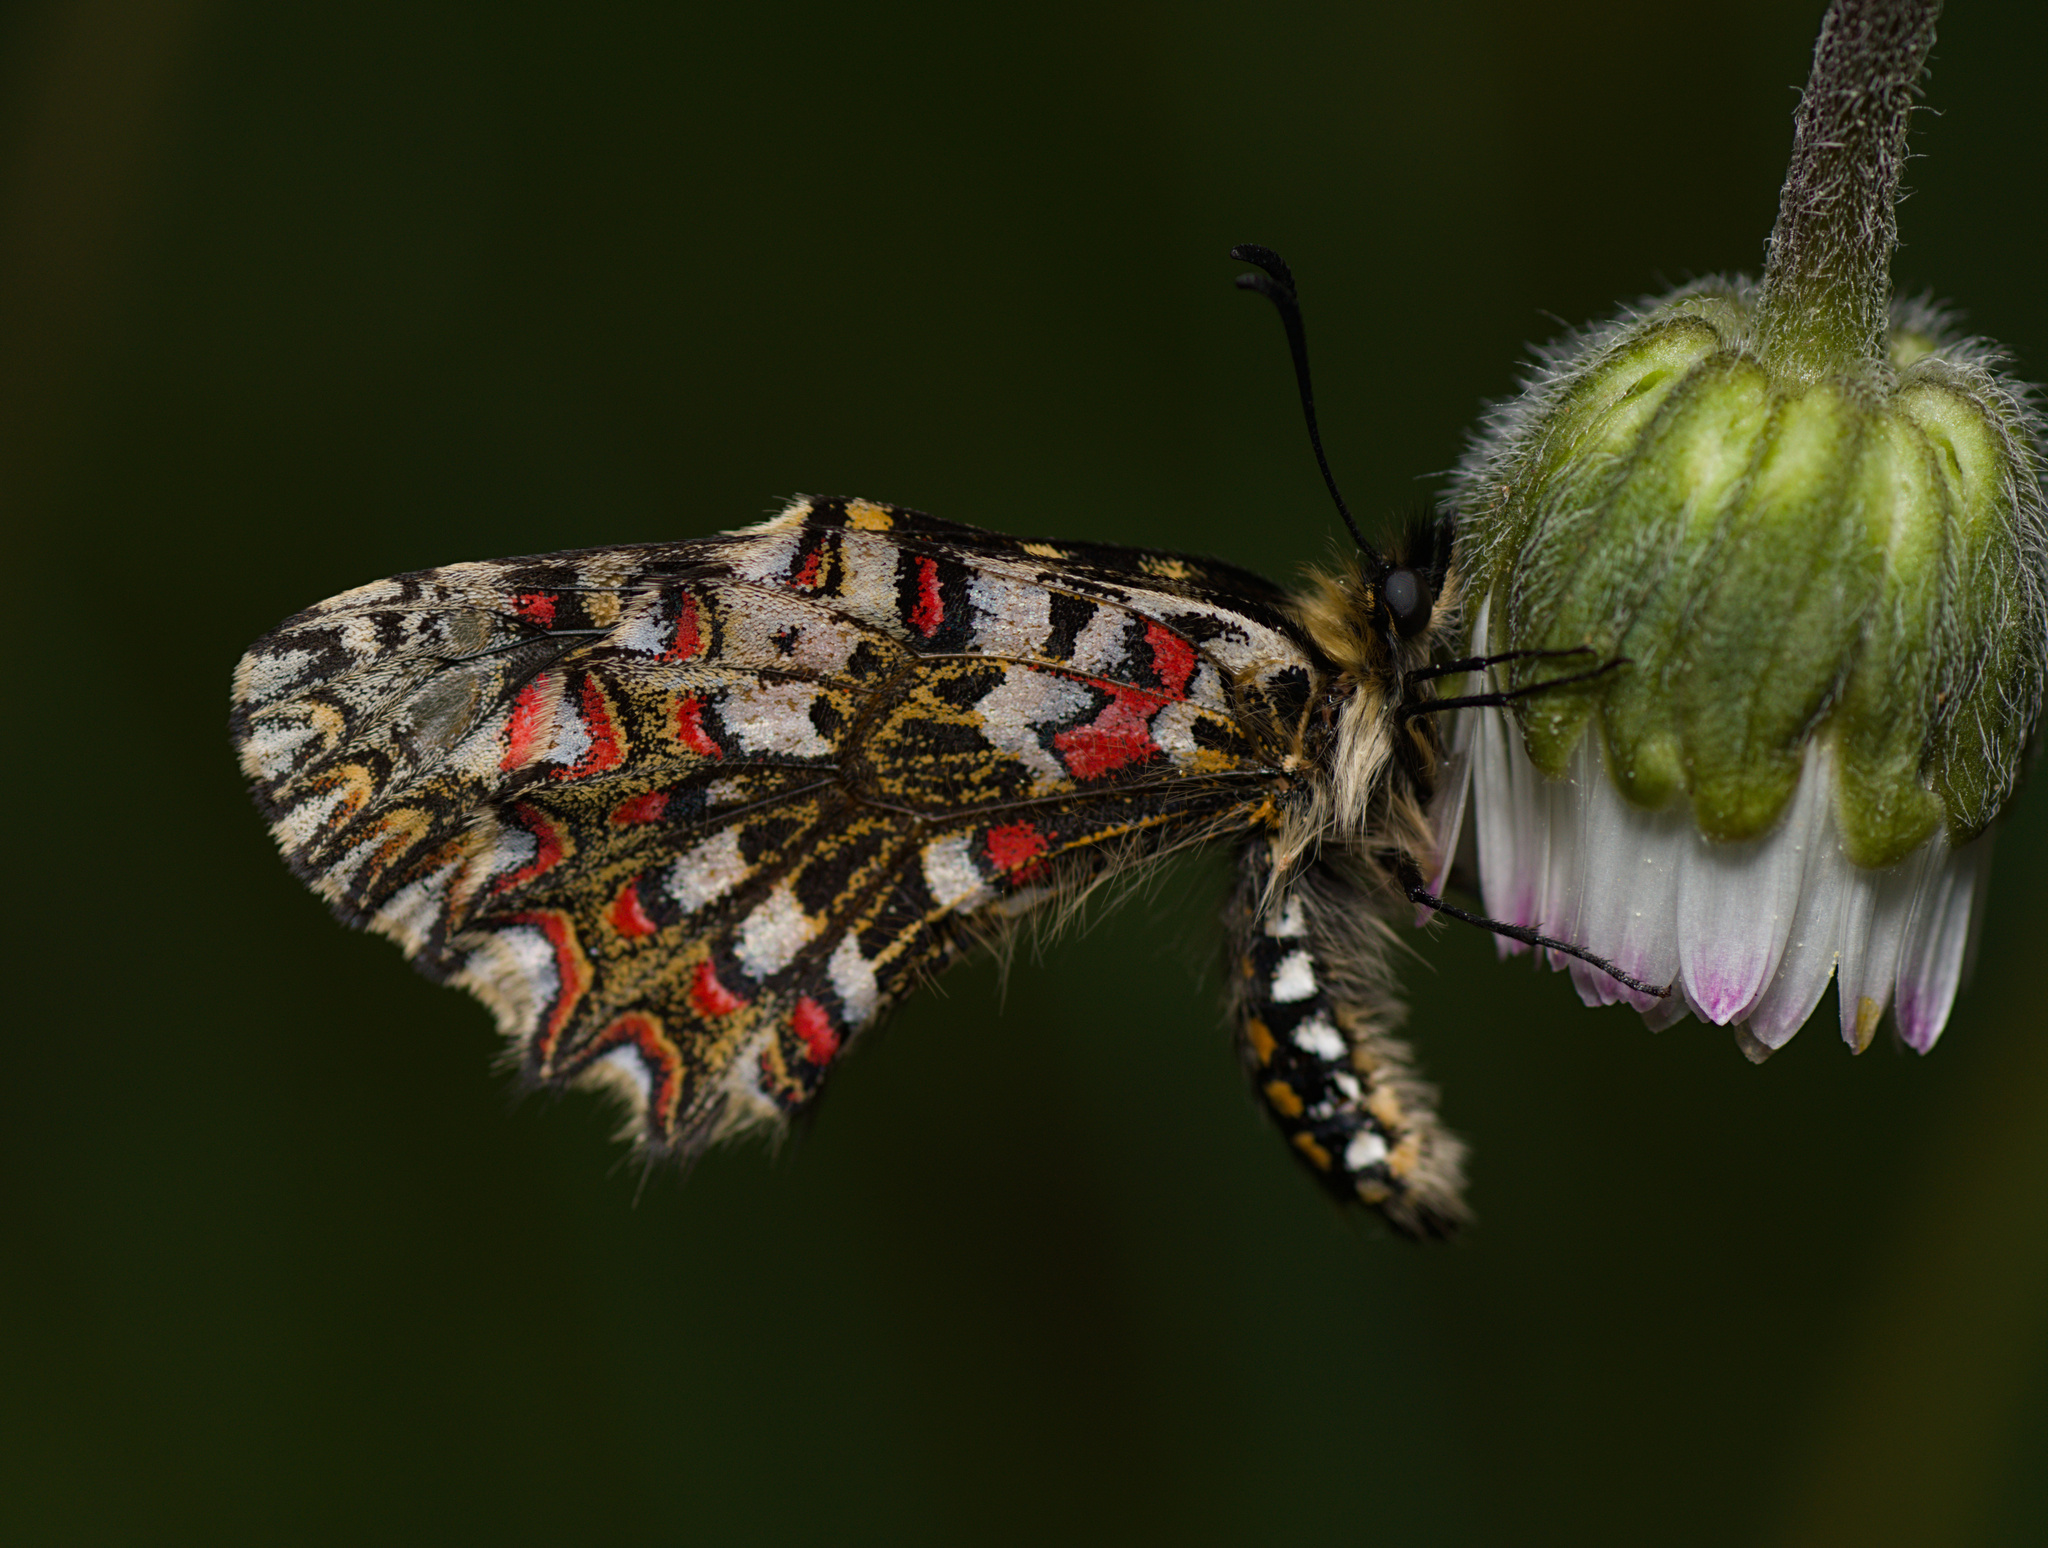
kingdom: Animalia
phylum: Arthropoda
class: Insecta
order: Lepidoptera
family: Papilionidae
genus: Zerynthia
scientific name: Zerynthia rumina
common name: Spanish festoon
